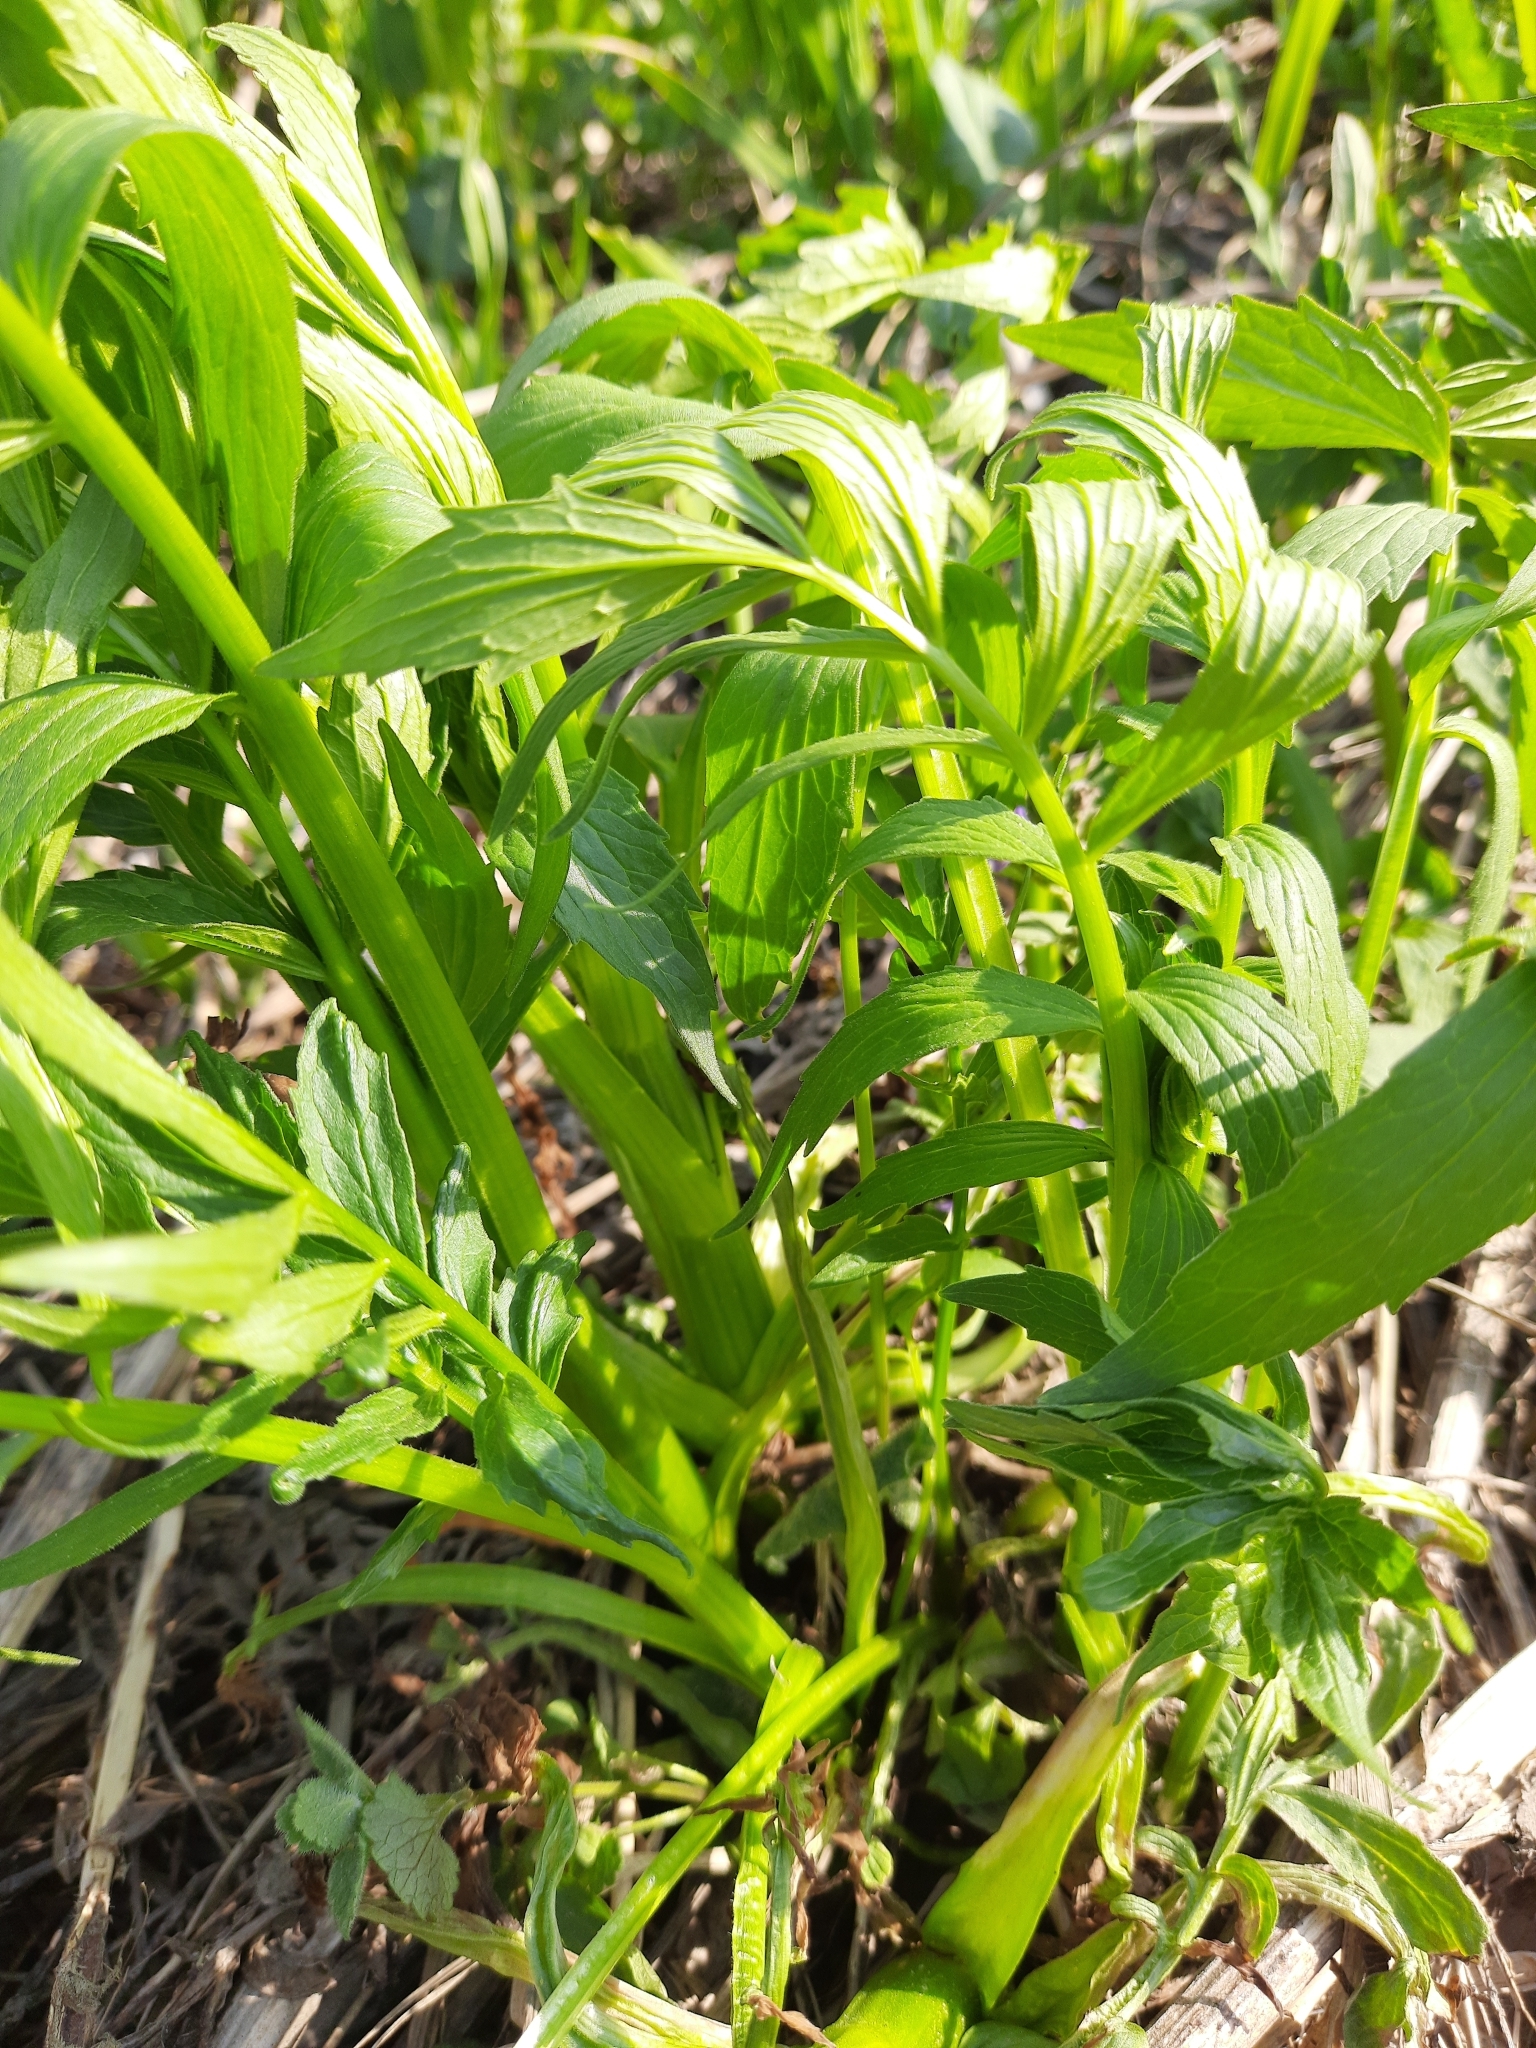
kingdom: Plantae
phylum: Tracheophyta
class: Magnoliopsida
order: Dipsacales
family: Caprifoliaceae
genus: Valeriana
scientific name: Valeriana wolgensis
